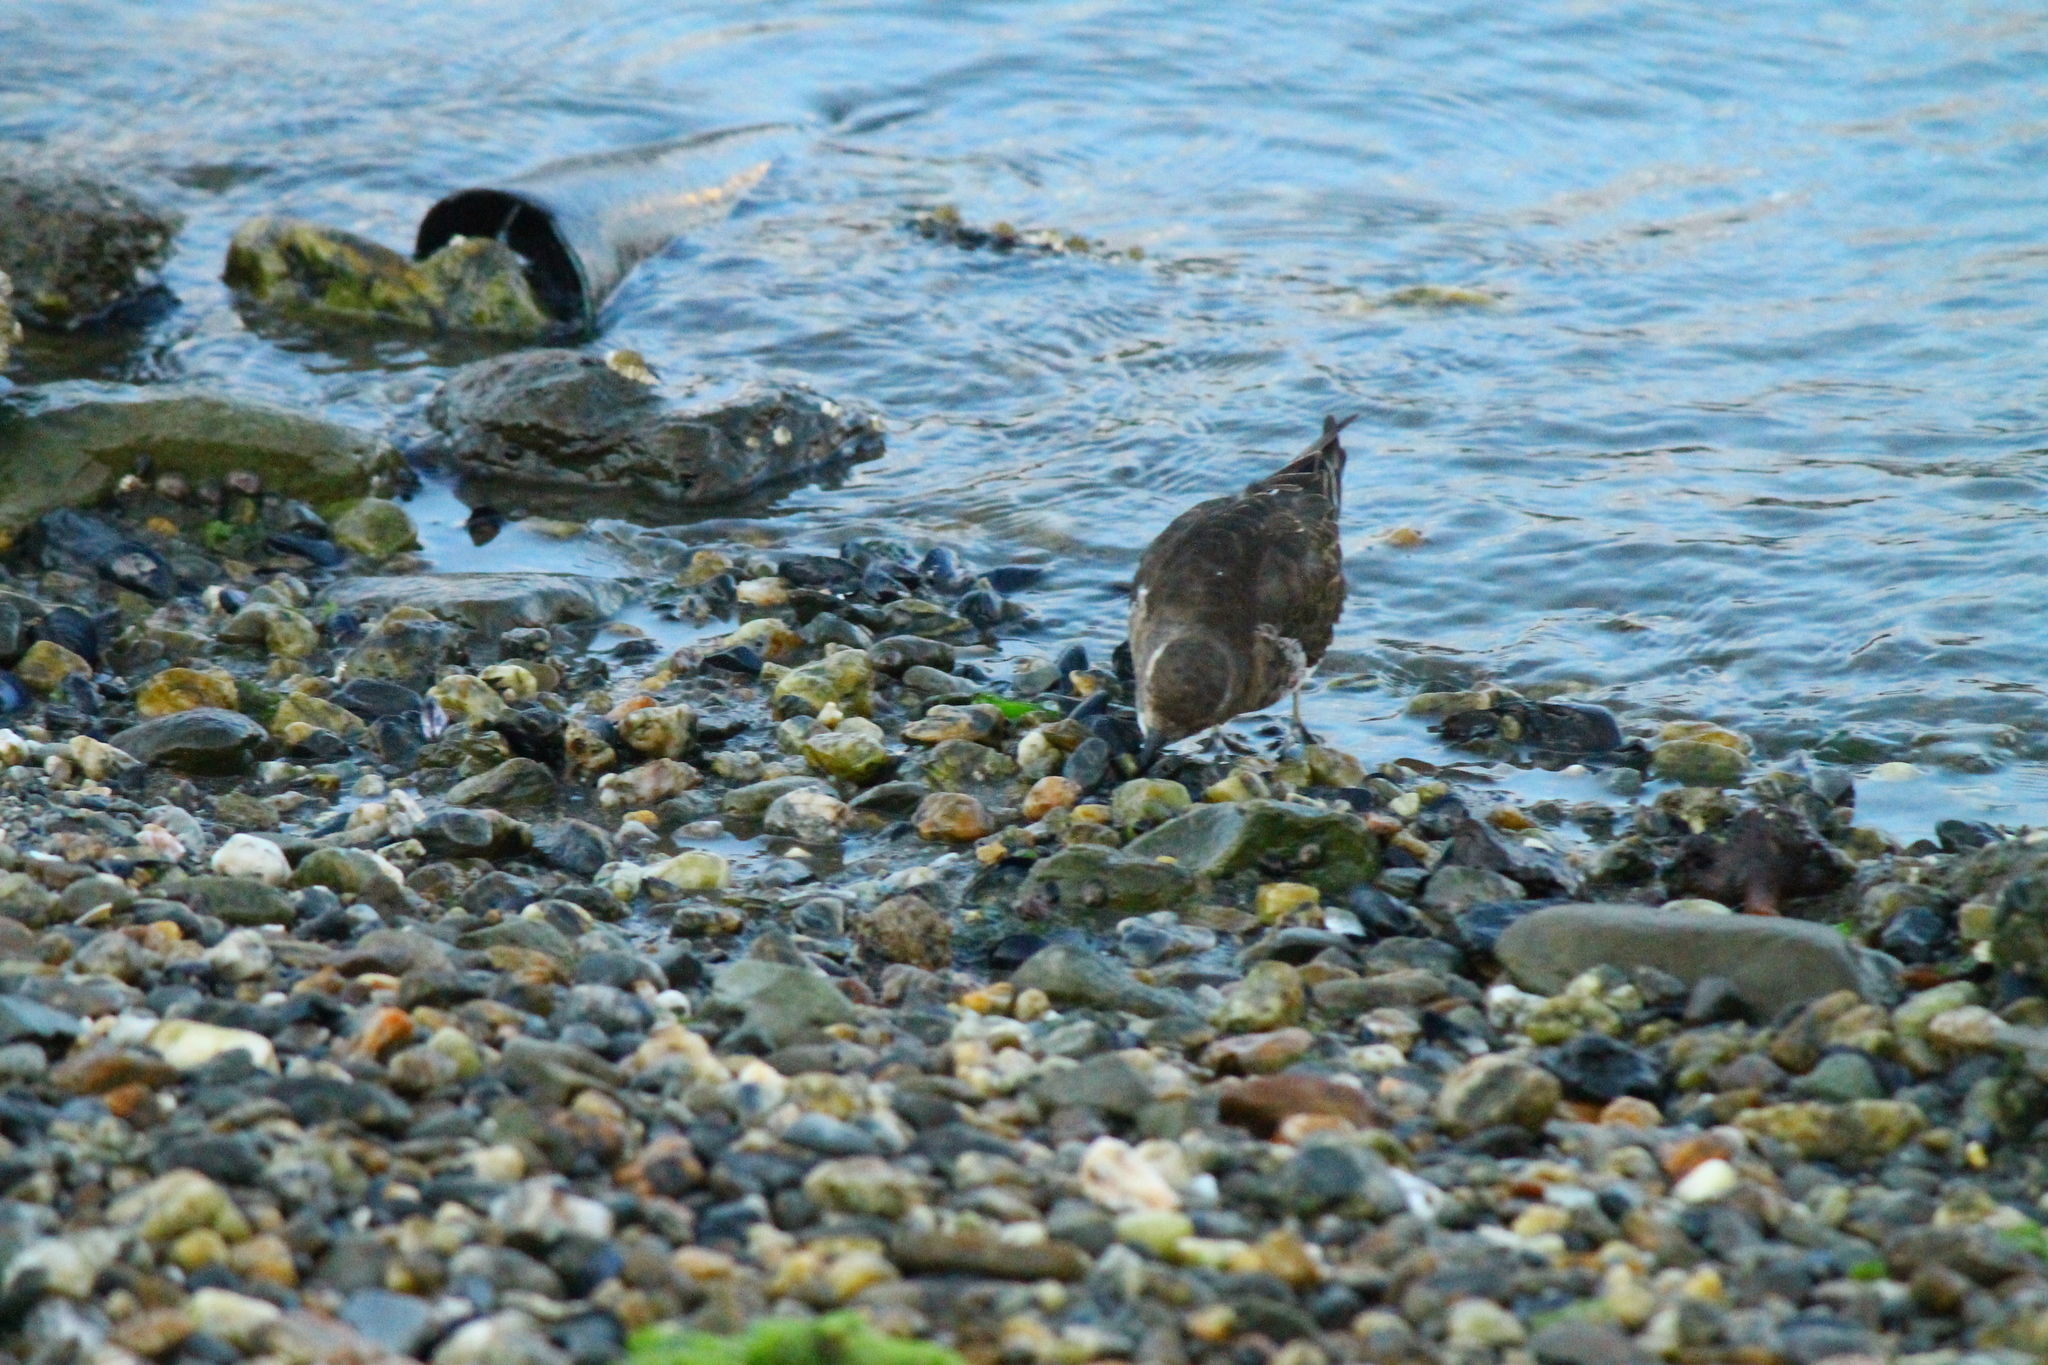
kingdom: Animalia
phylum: Chordata
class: Aves
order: Charadriiformes
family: Charadriidae
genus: Charadrius
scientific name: Charadrius modestus
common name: Rufous-chested plover
